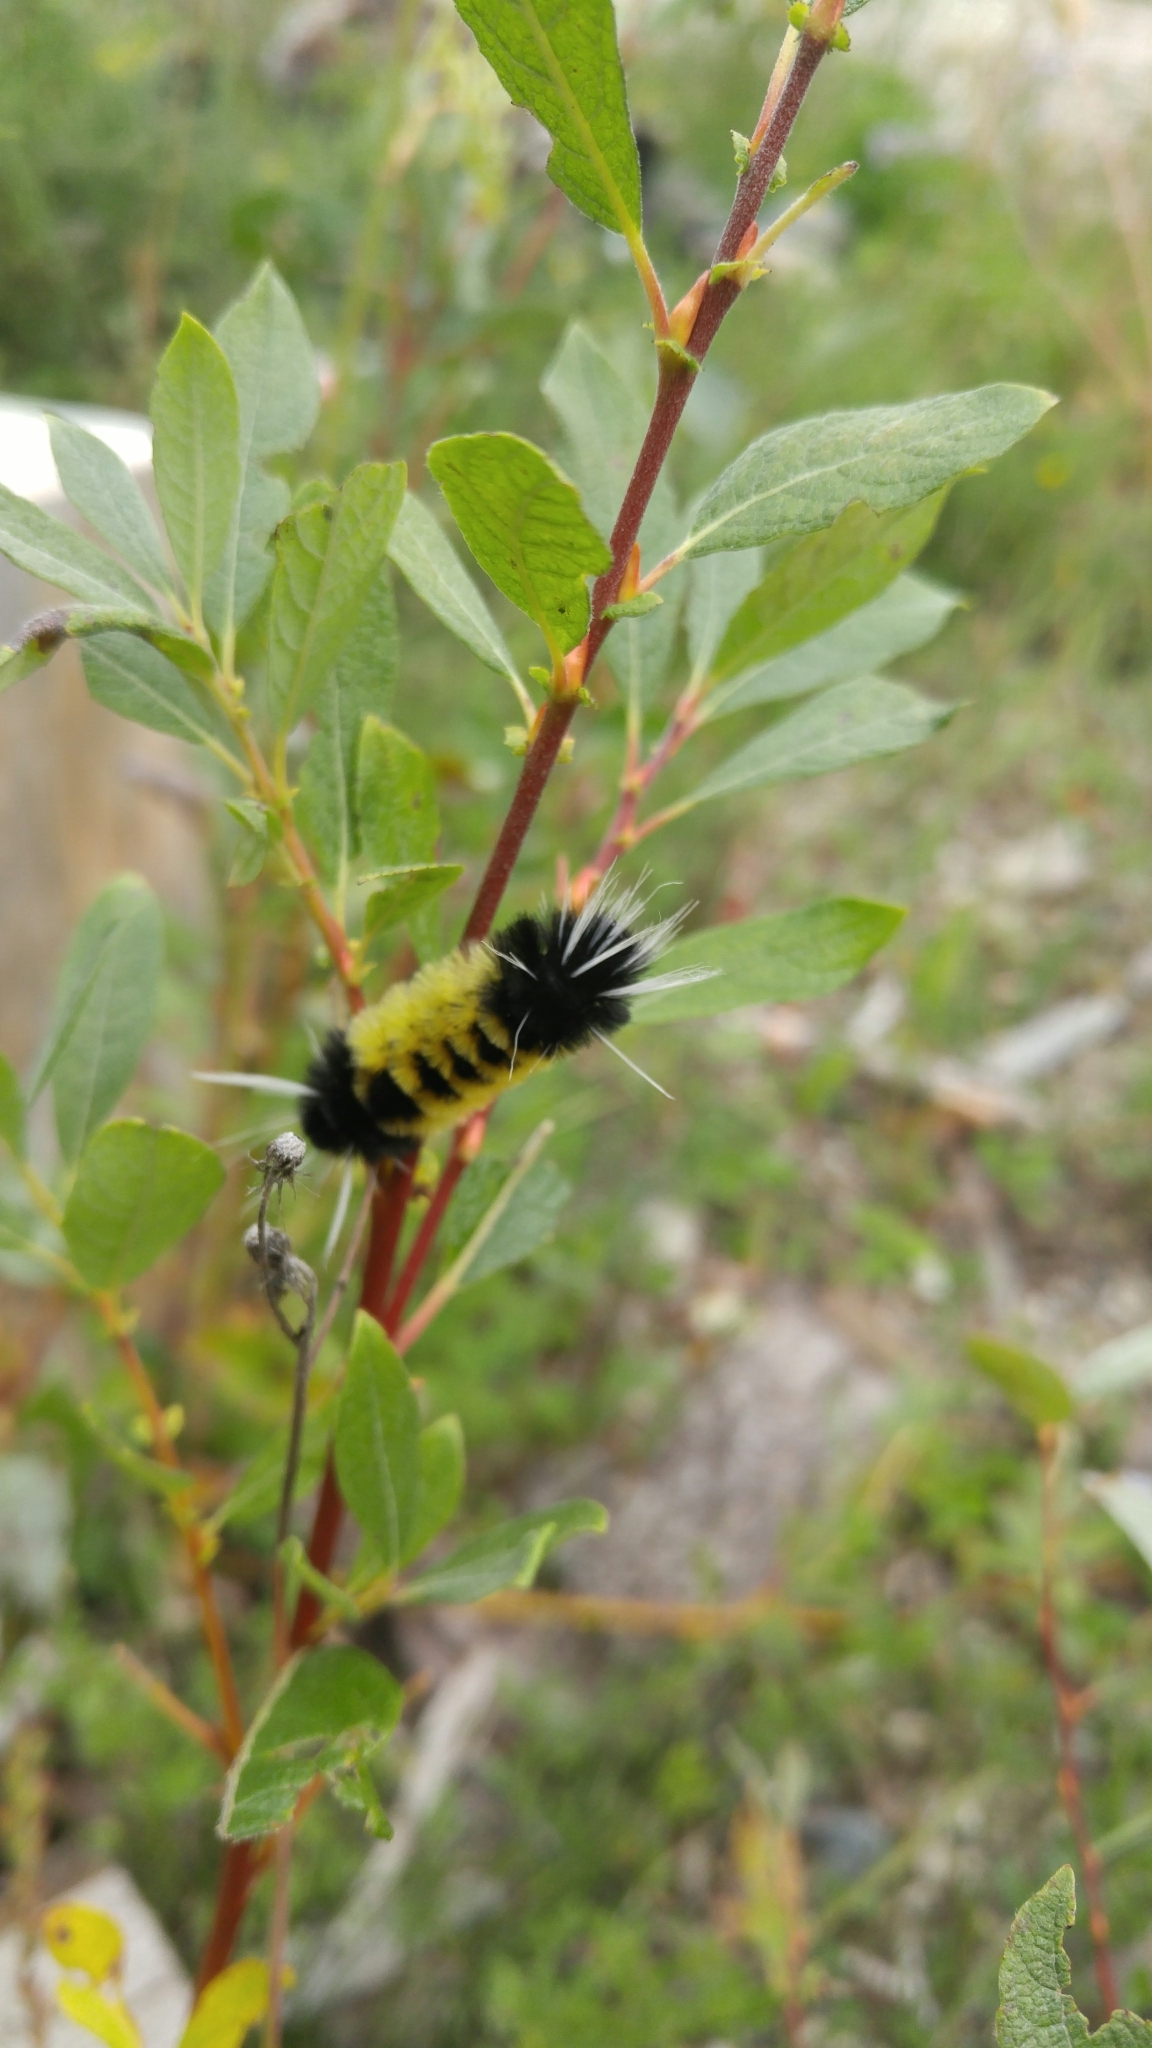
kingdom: Animalia
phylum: Arthropoda
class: Insecta
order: Lepidoptera
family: Erebidae
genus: Lophocampa
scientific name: Lophocampa maculata
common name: Spotted tussock moth
